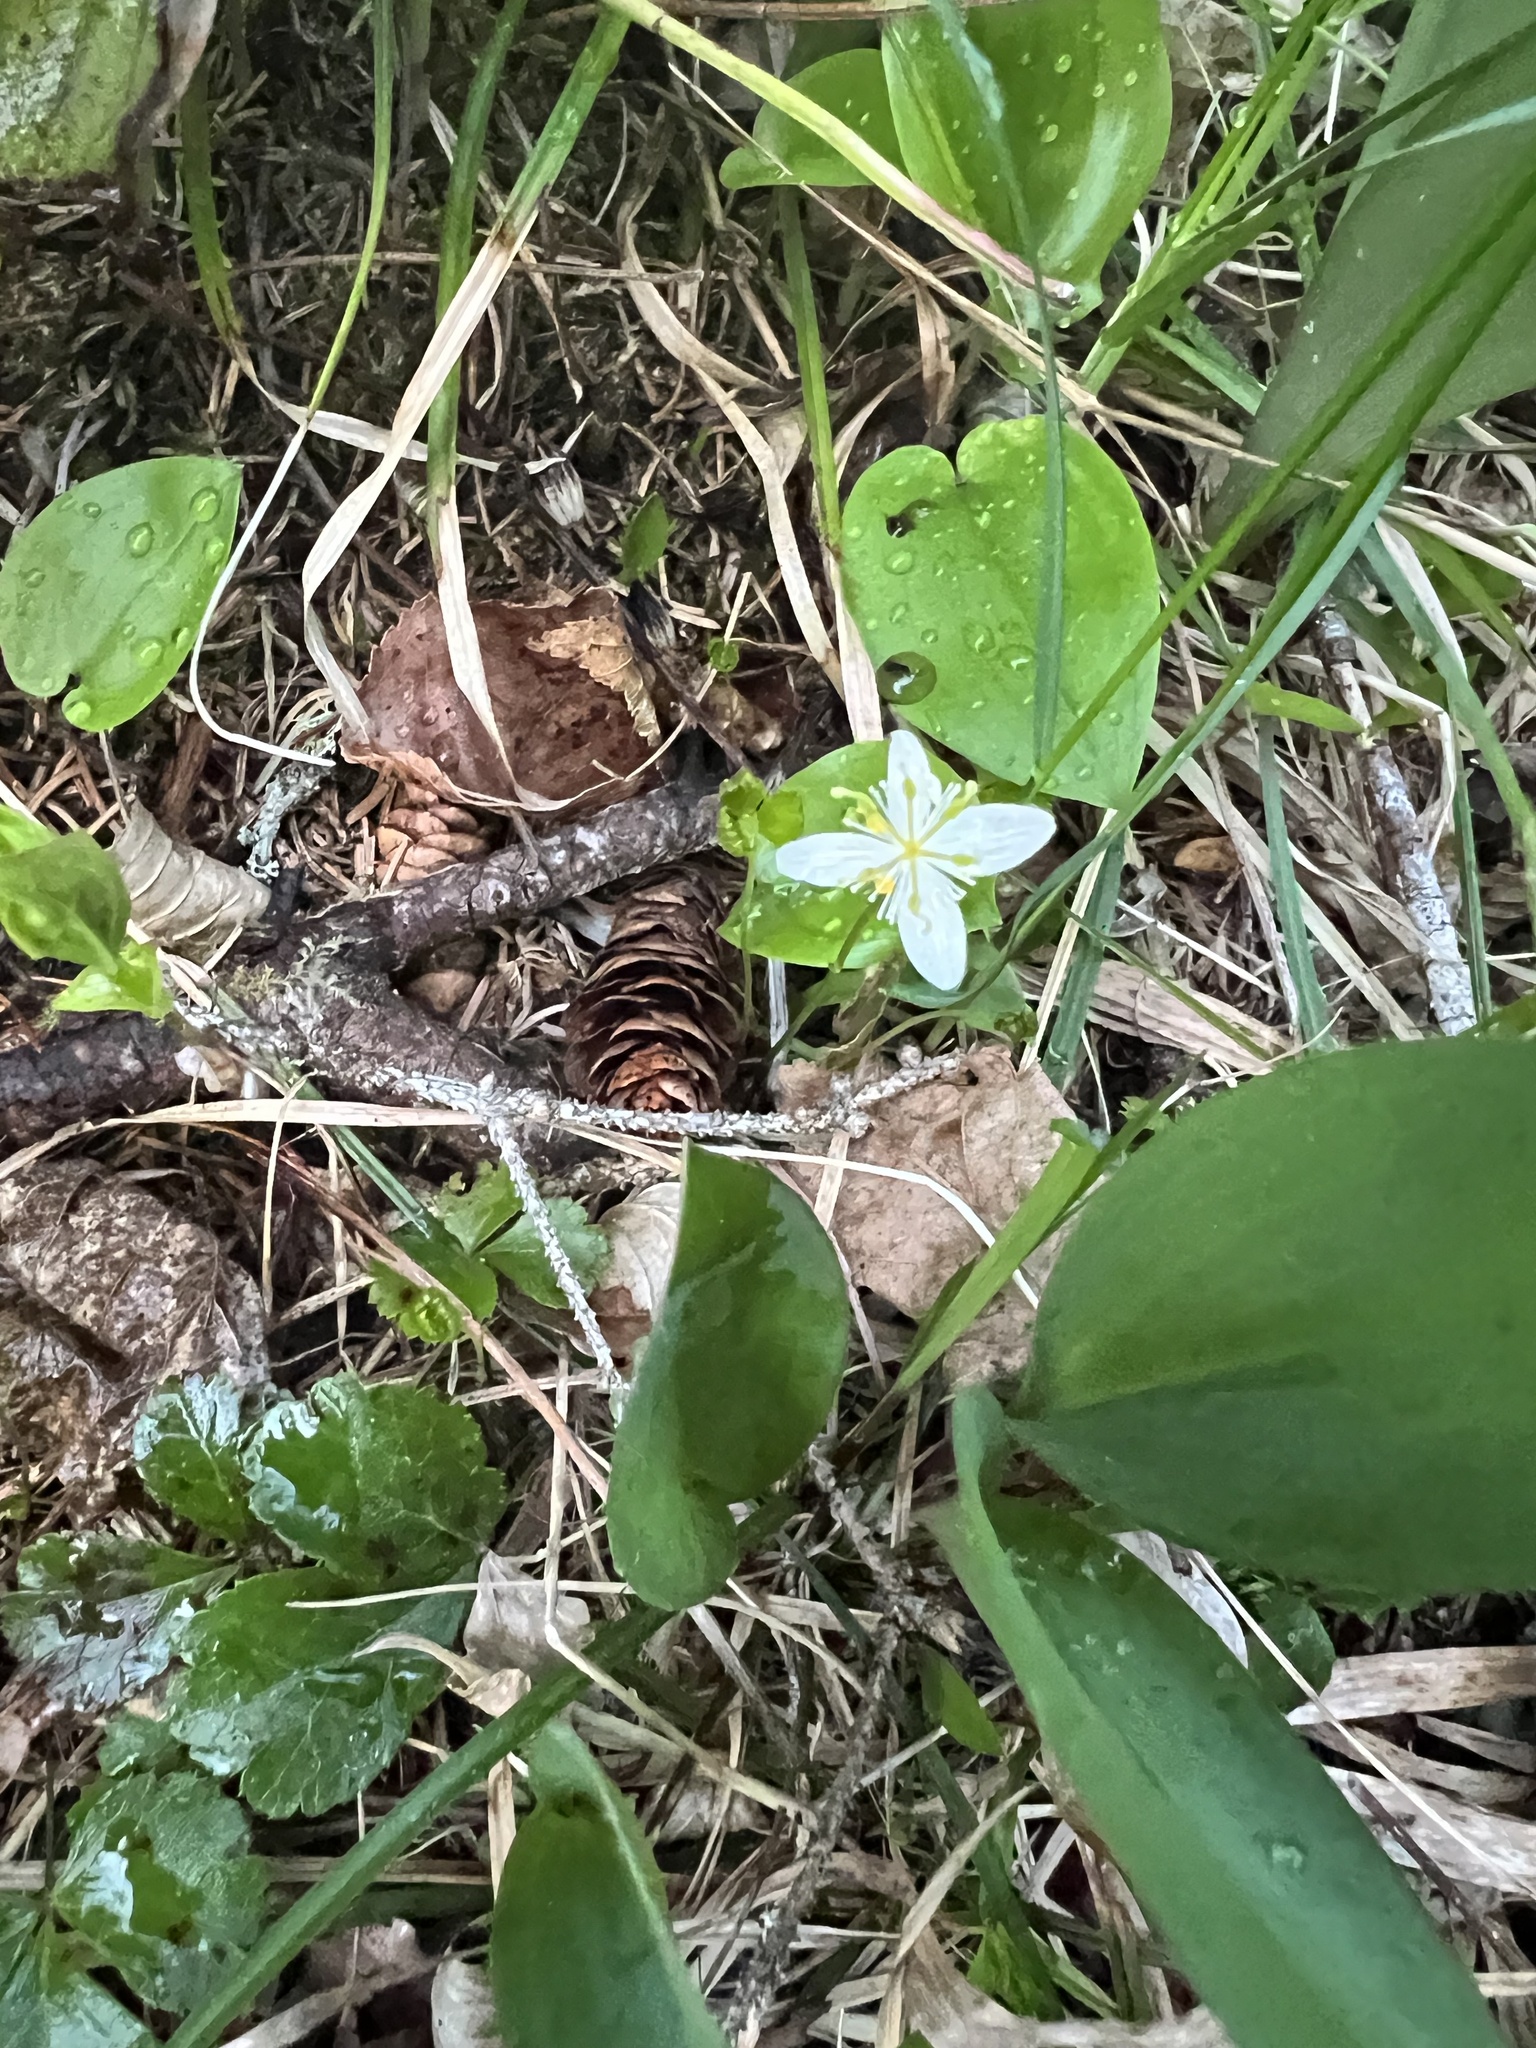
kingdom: Plantae
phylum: Tracheophyta
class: Magnoliopsida
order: Ranunculales
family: Ranunculaceae
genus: Coptis
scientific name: Coptis trifolia
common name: Canker-root
